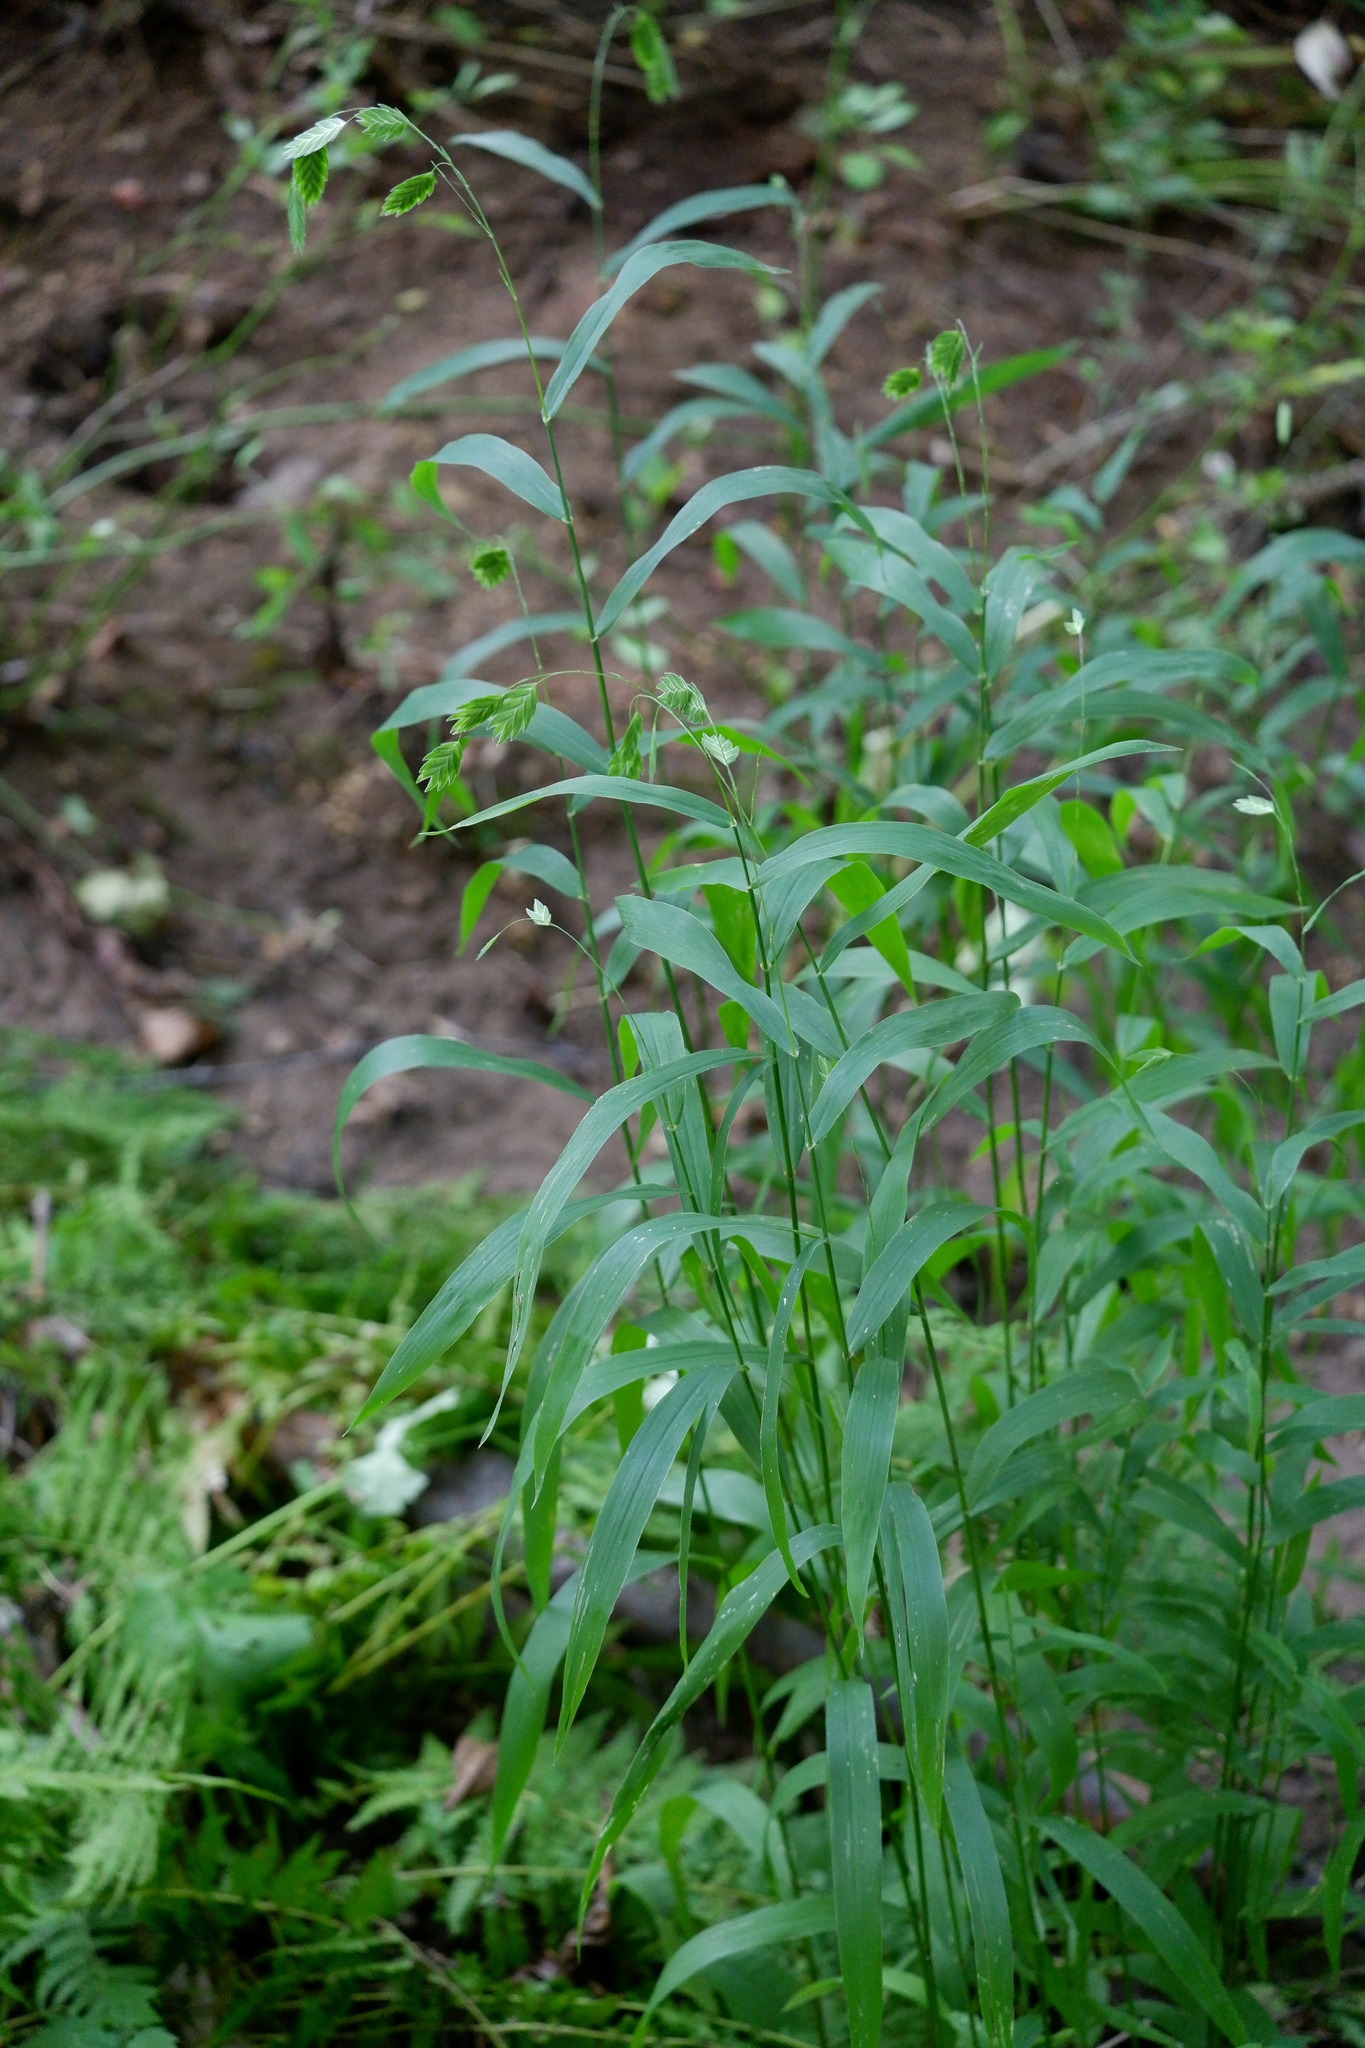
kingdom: Plantae
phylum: Tracheophyta
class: Liliopsida
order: Poales
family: Poaceae
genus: Chasmanthium
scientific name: Chasmanthium latifolium
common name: Broad-leaved chasmanthium
